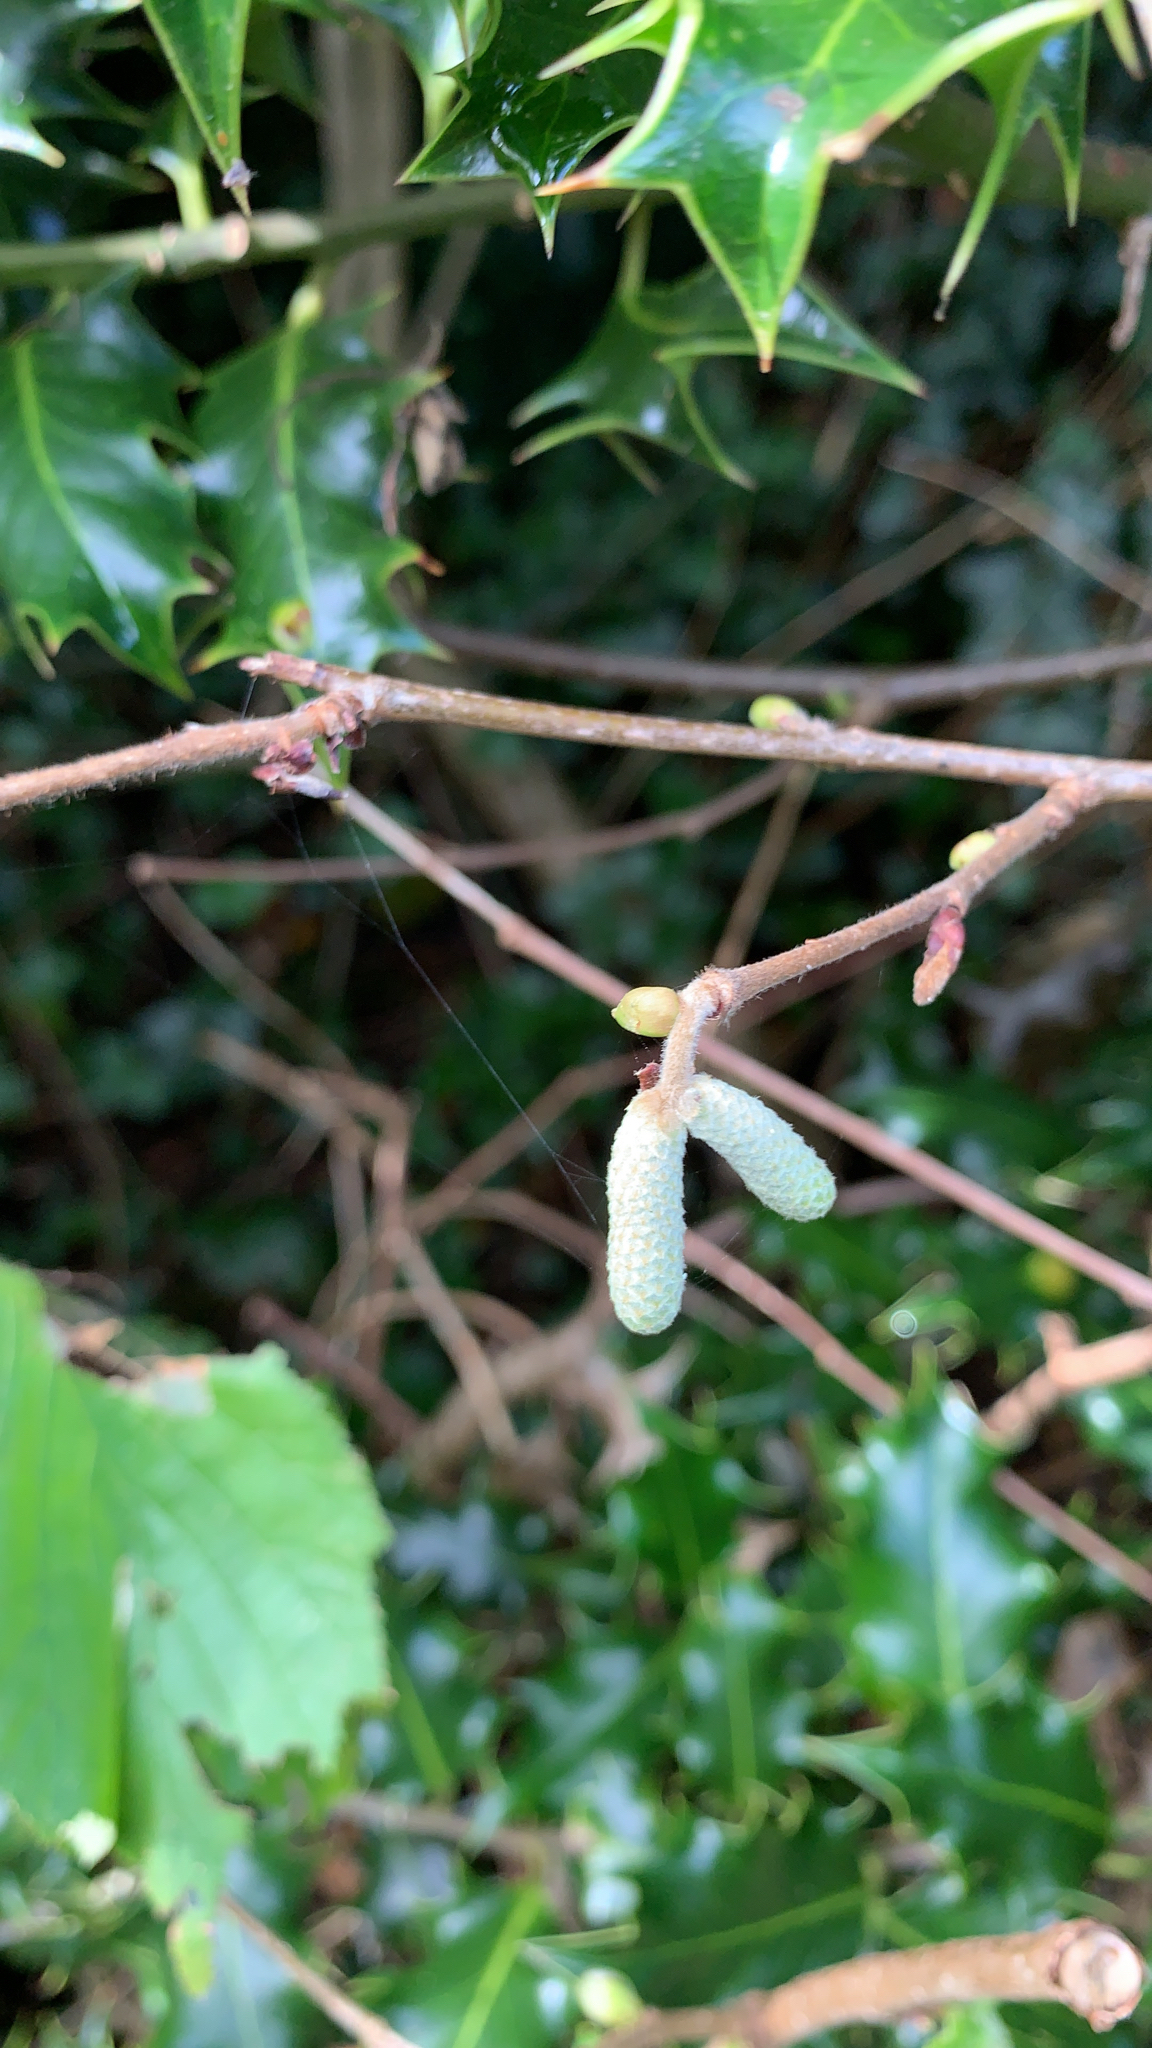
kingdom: Plantae
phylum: Tracheophyta
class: Magnoliopsida
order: Fagales
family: Betulaceae
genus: Corylus
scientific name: Corylus avellana
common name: European hazel
